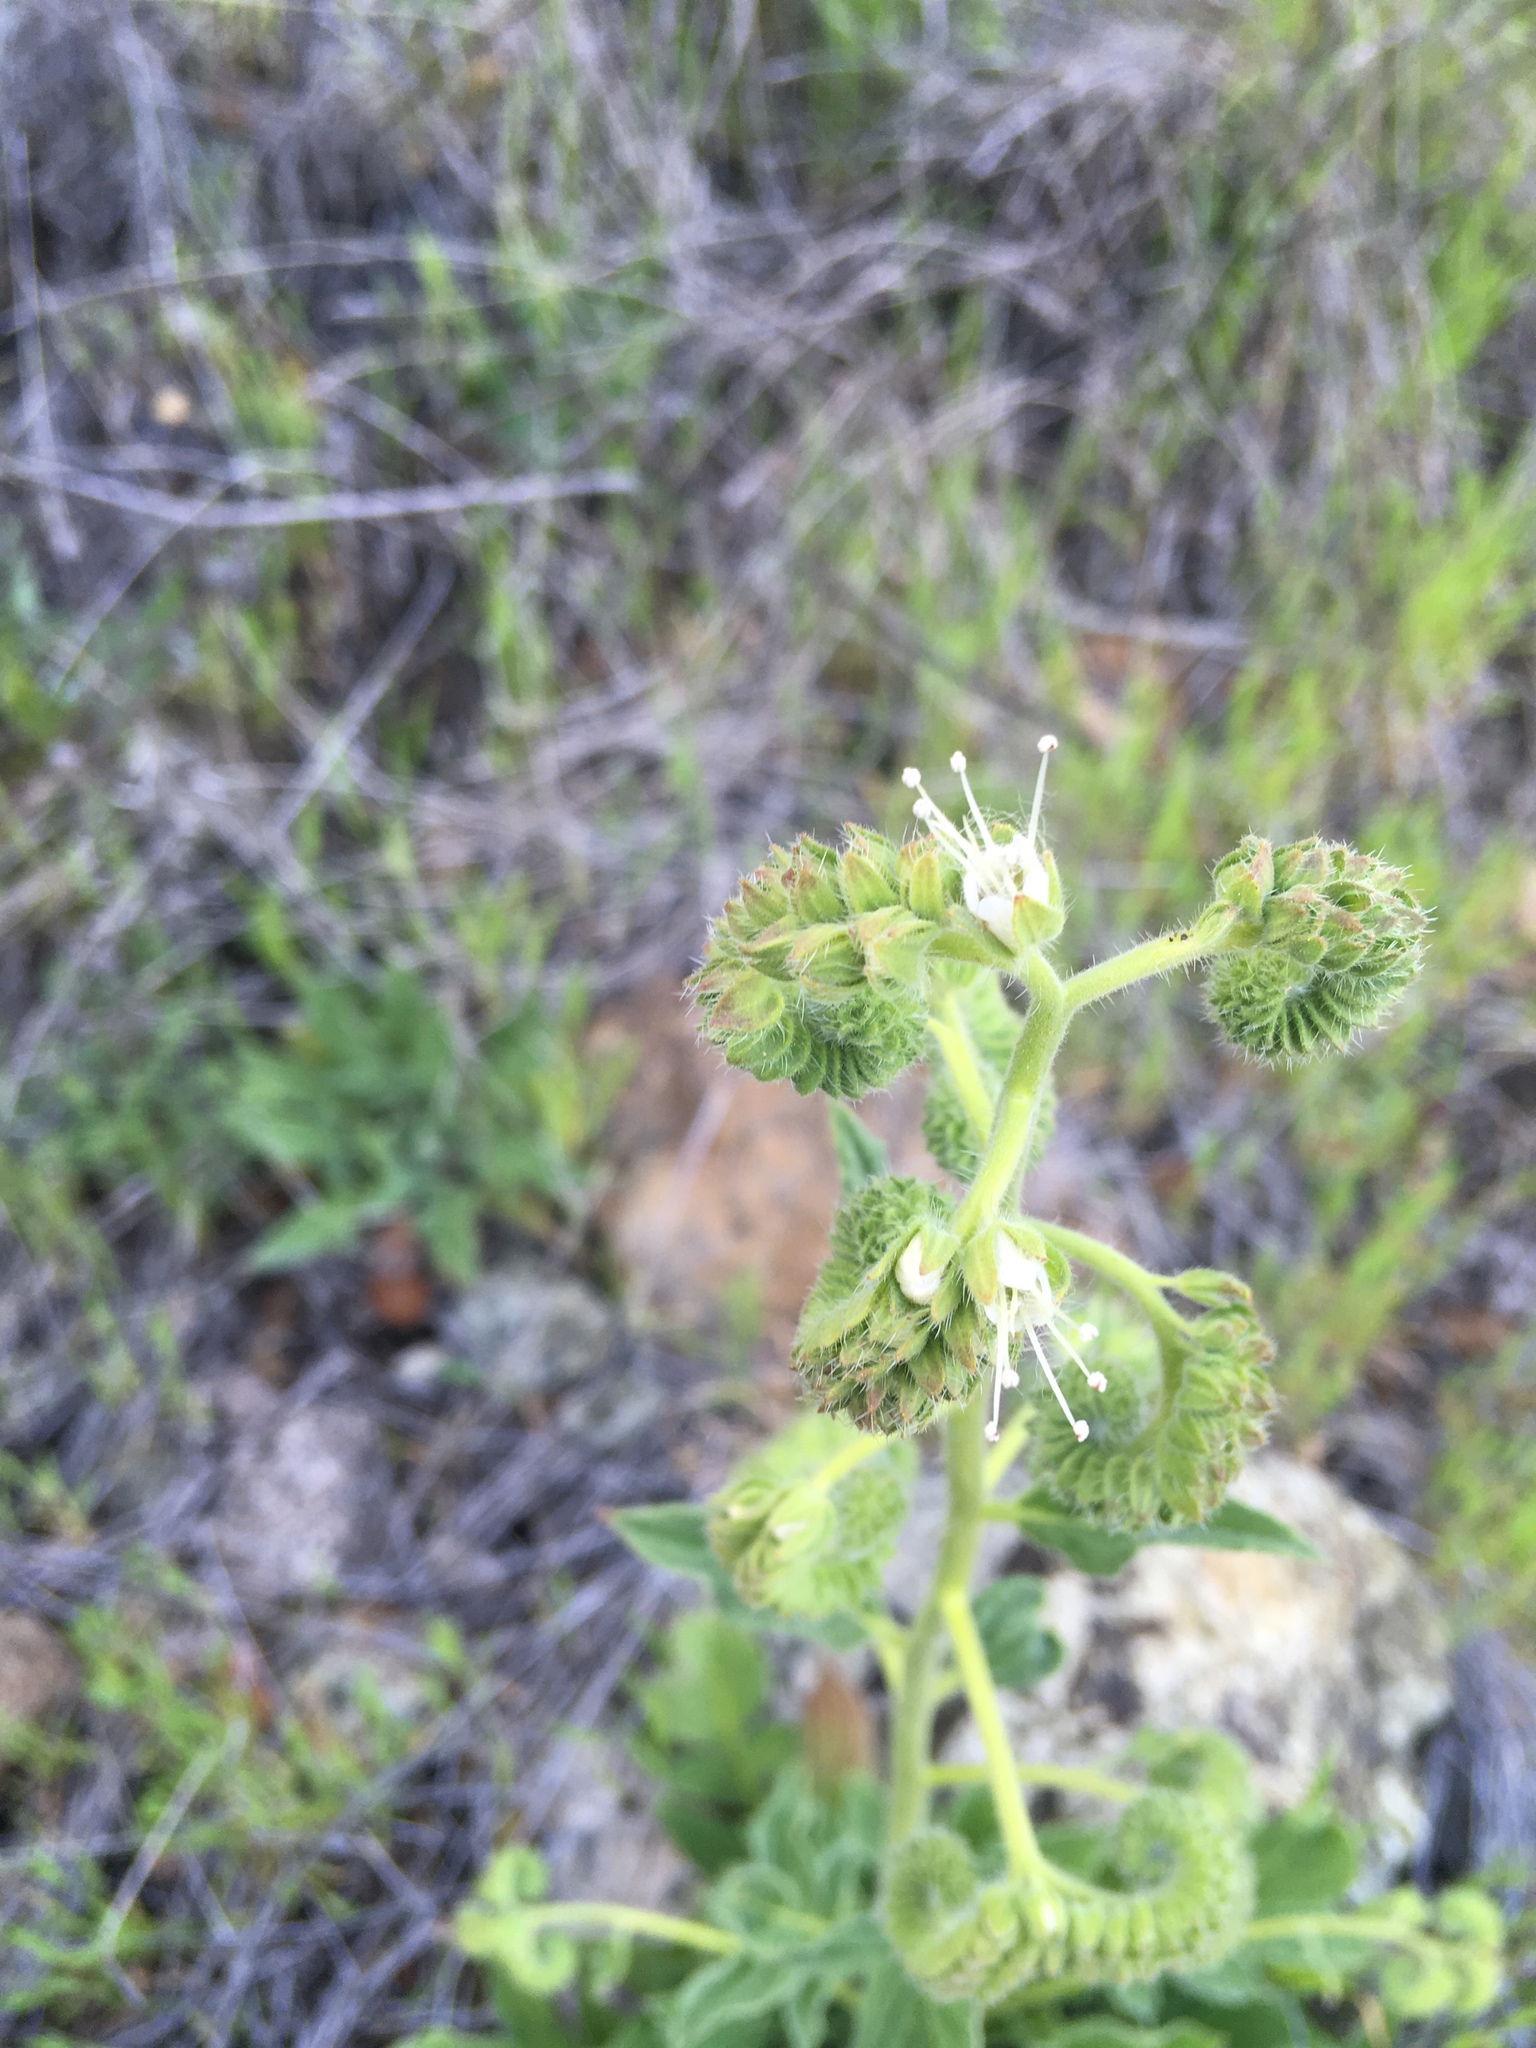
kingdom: Plantae
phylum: Tracheophyta
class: Magnoliopsida
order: Boraginales
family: Hydrophyllaceae
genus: Phacelia
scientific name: Phacelia imbricata
